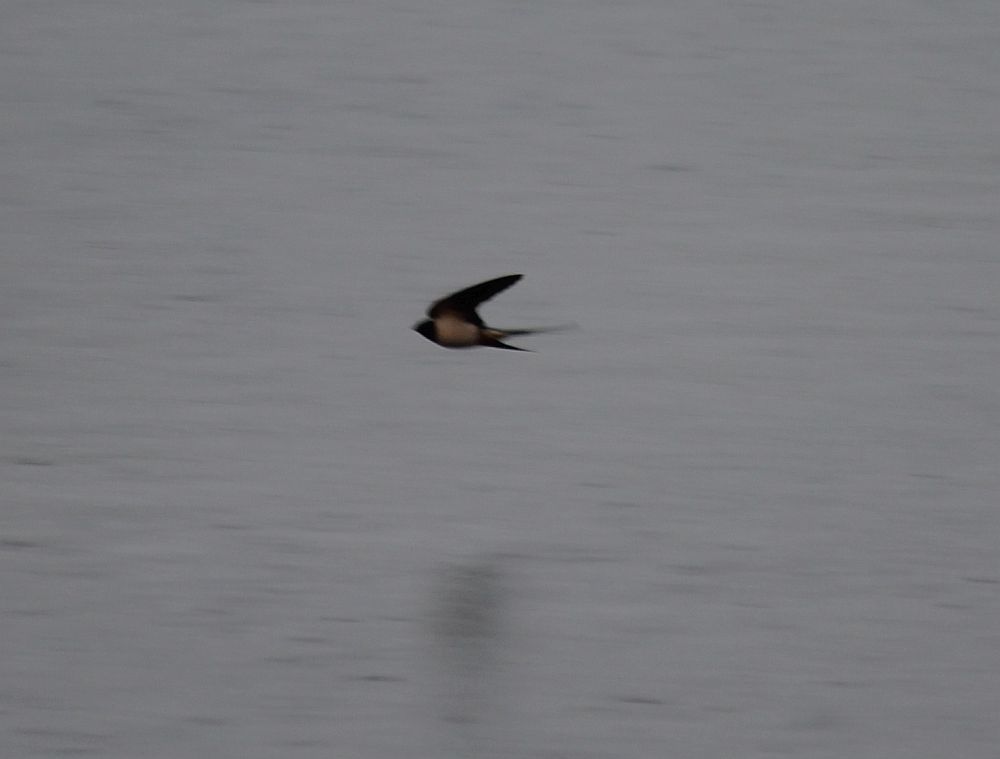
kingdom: Animalia
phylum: Chordata
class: Aves
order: Passeriformes
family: Hirundinidae
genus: Hirundo
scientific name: Hirundo rustica
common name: Barn swallow
